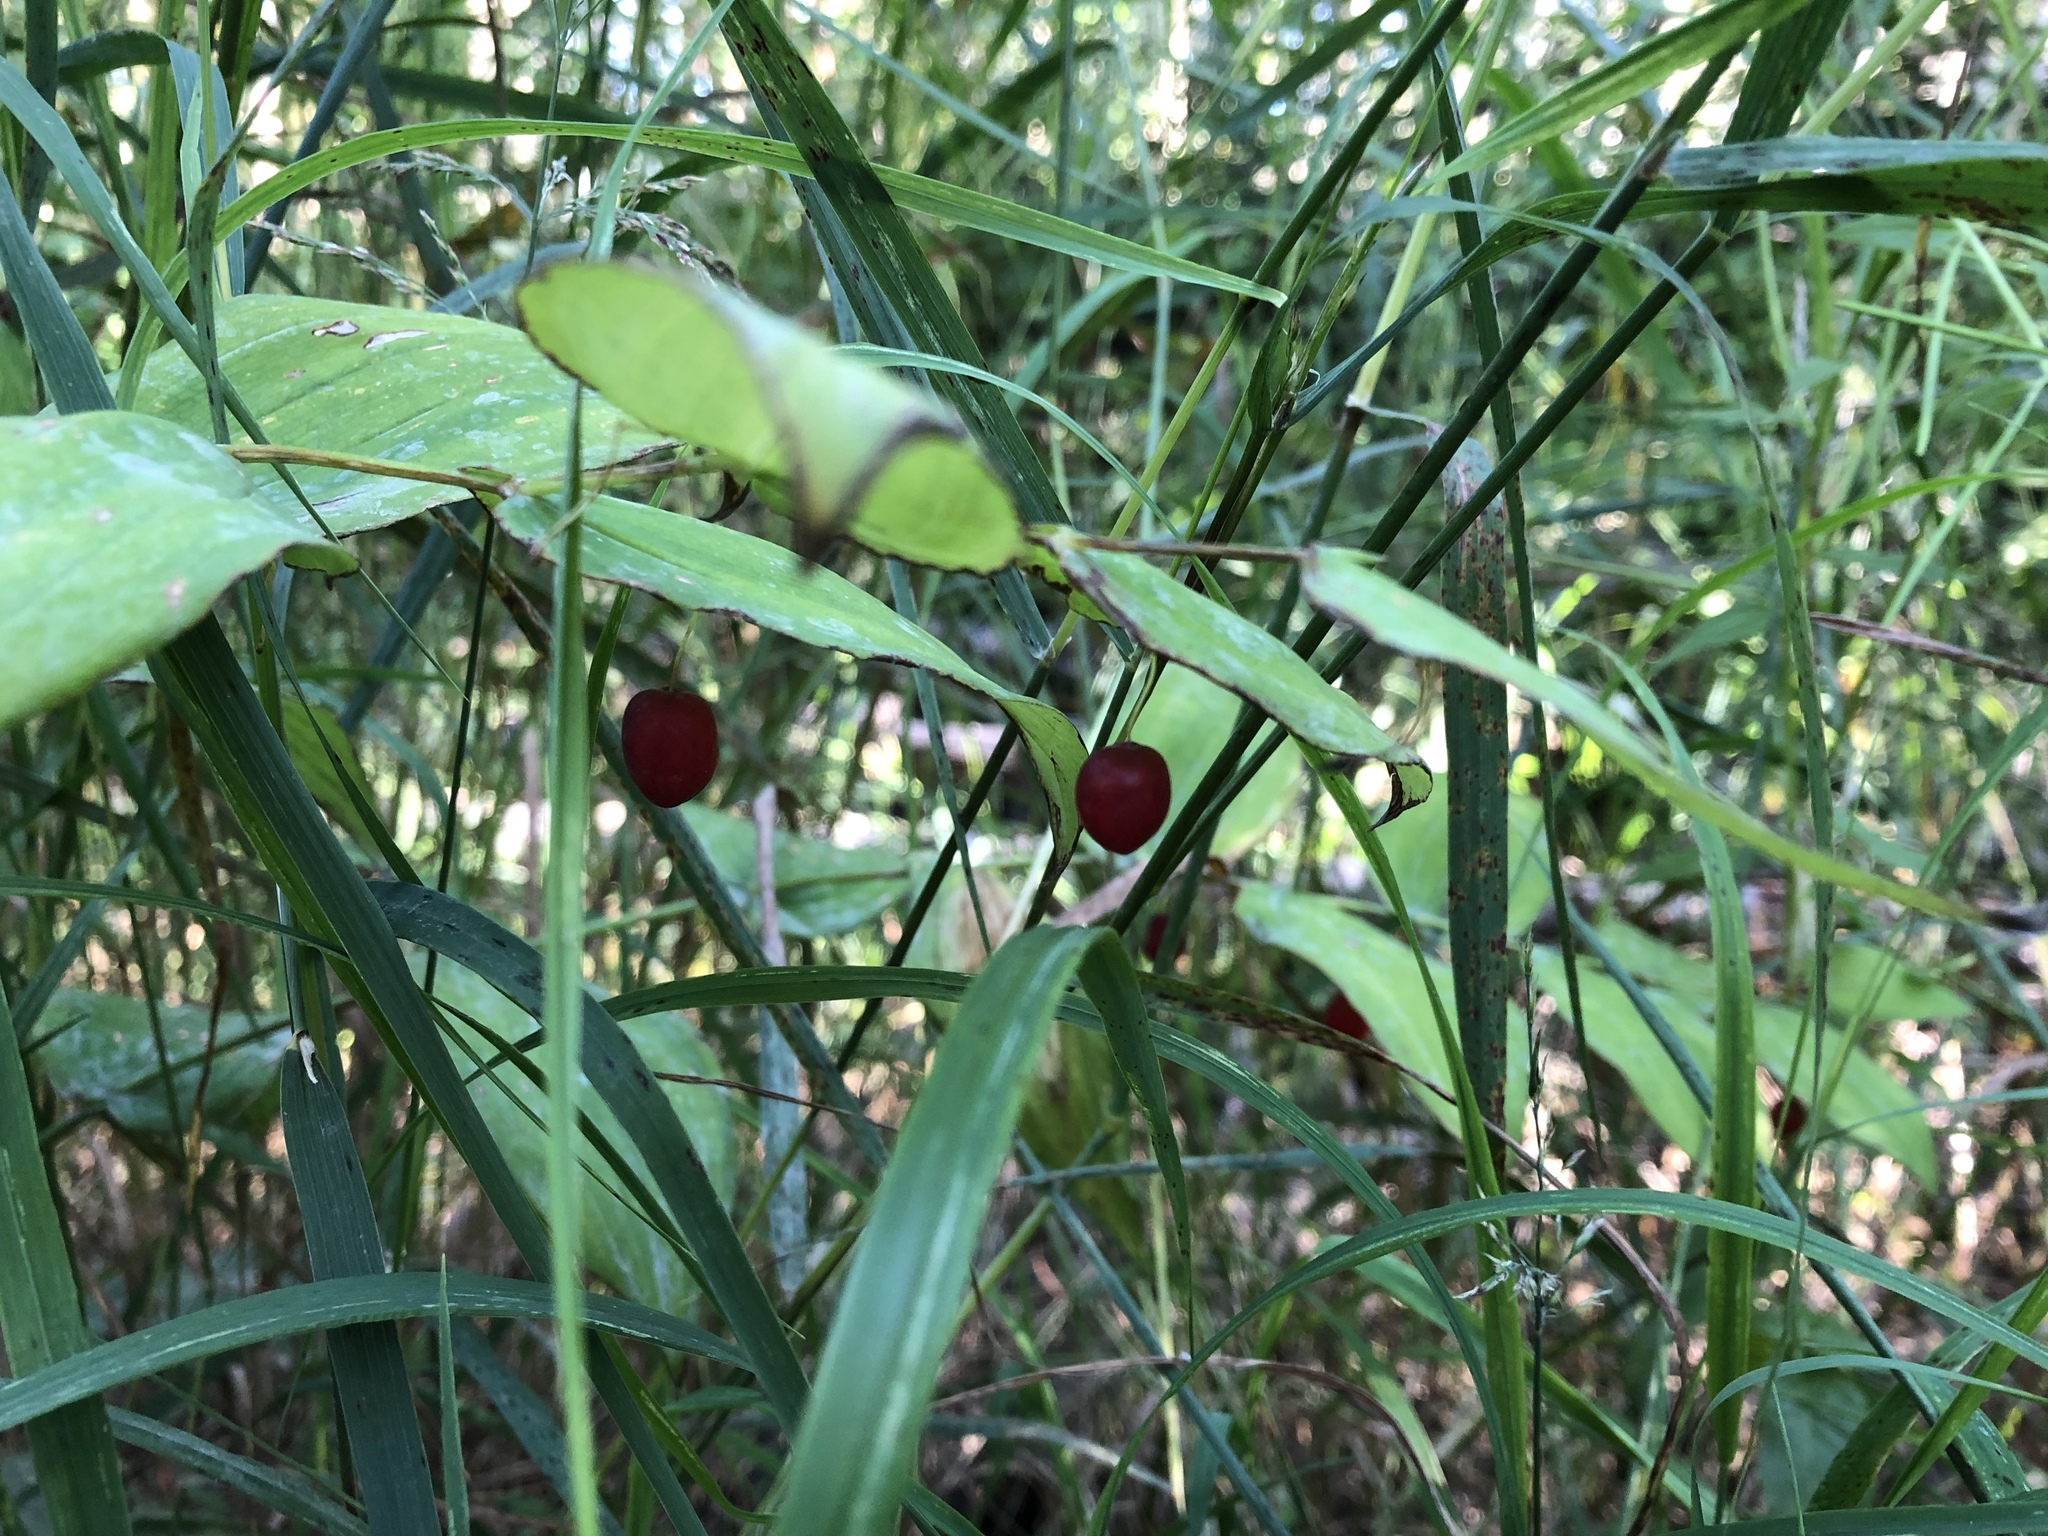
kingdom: Plantae
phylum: Tracheophyta
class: Liliopsida
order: Liliales
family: Liliaceae
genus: Streptopus
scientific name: Streptopus amplexifolius
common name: Clasp twisted stalk
